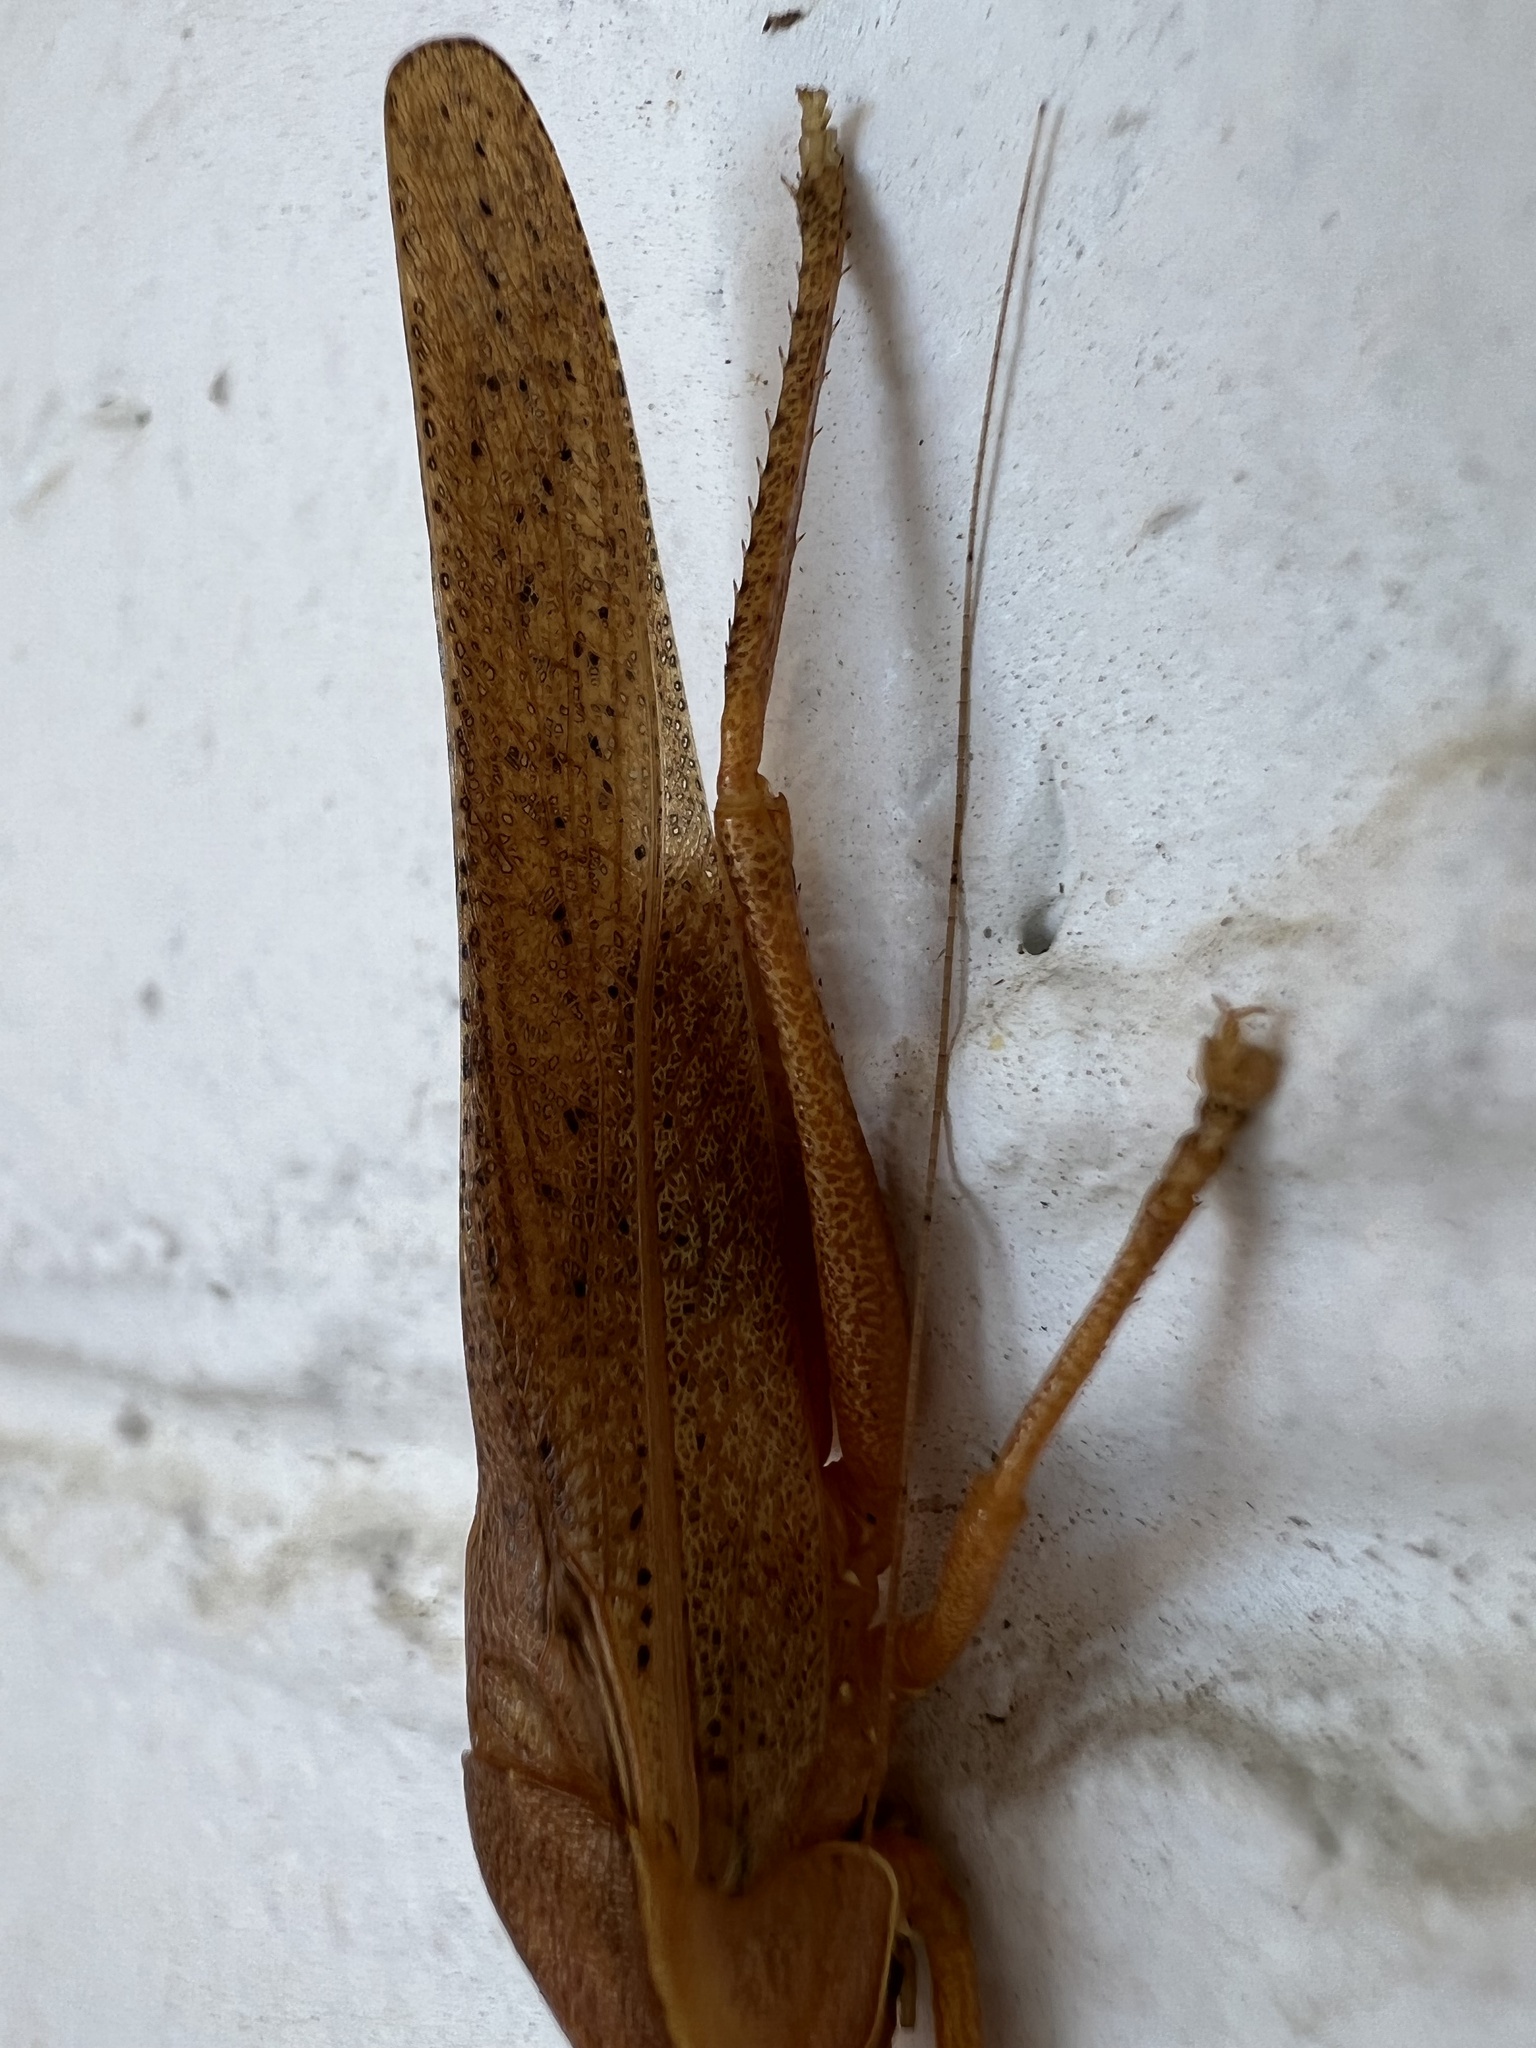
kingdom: Animalia
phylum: Arthropoda
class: Insecta
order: Orthoptera
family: Tettigoniidae
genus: Pyrgocorypha
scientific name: Pyrgocorypha uncinata
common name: Hook-faced conehead
